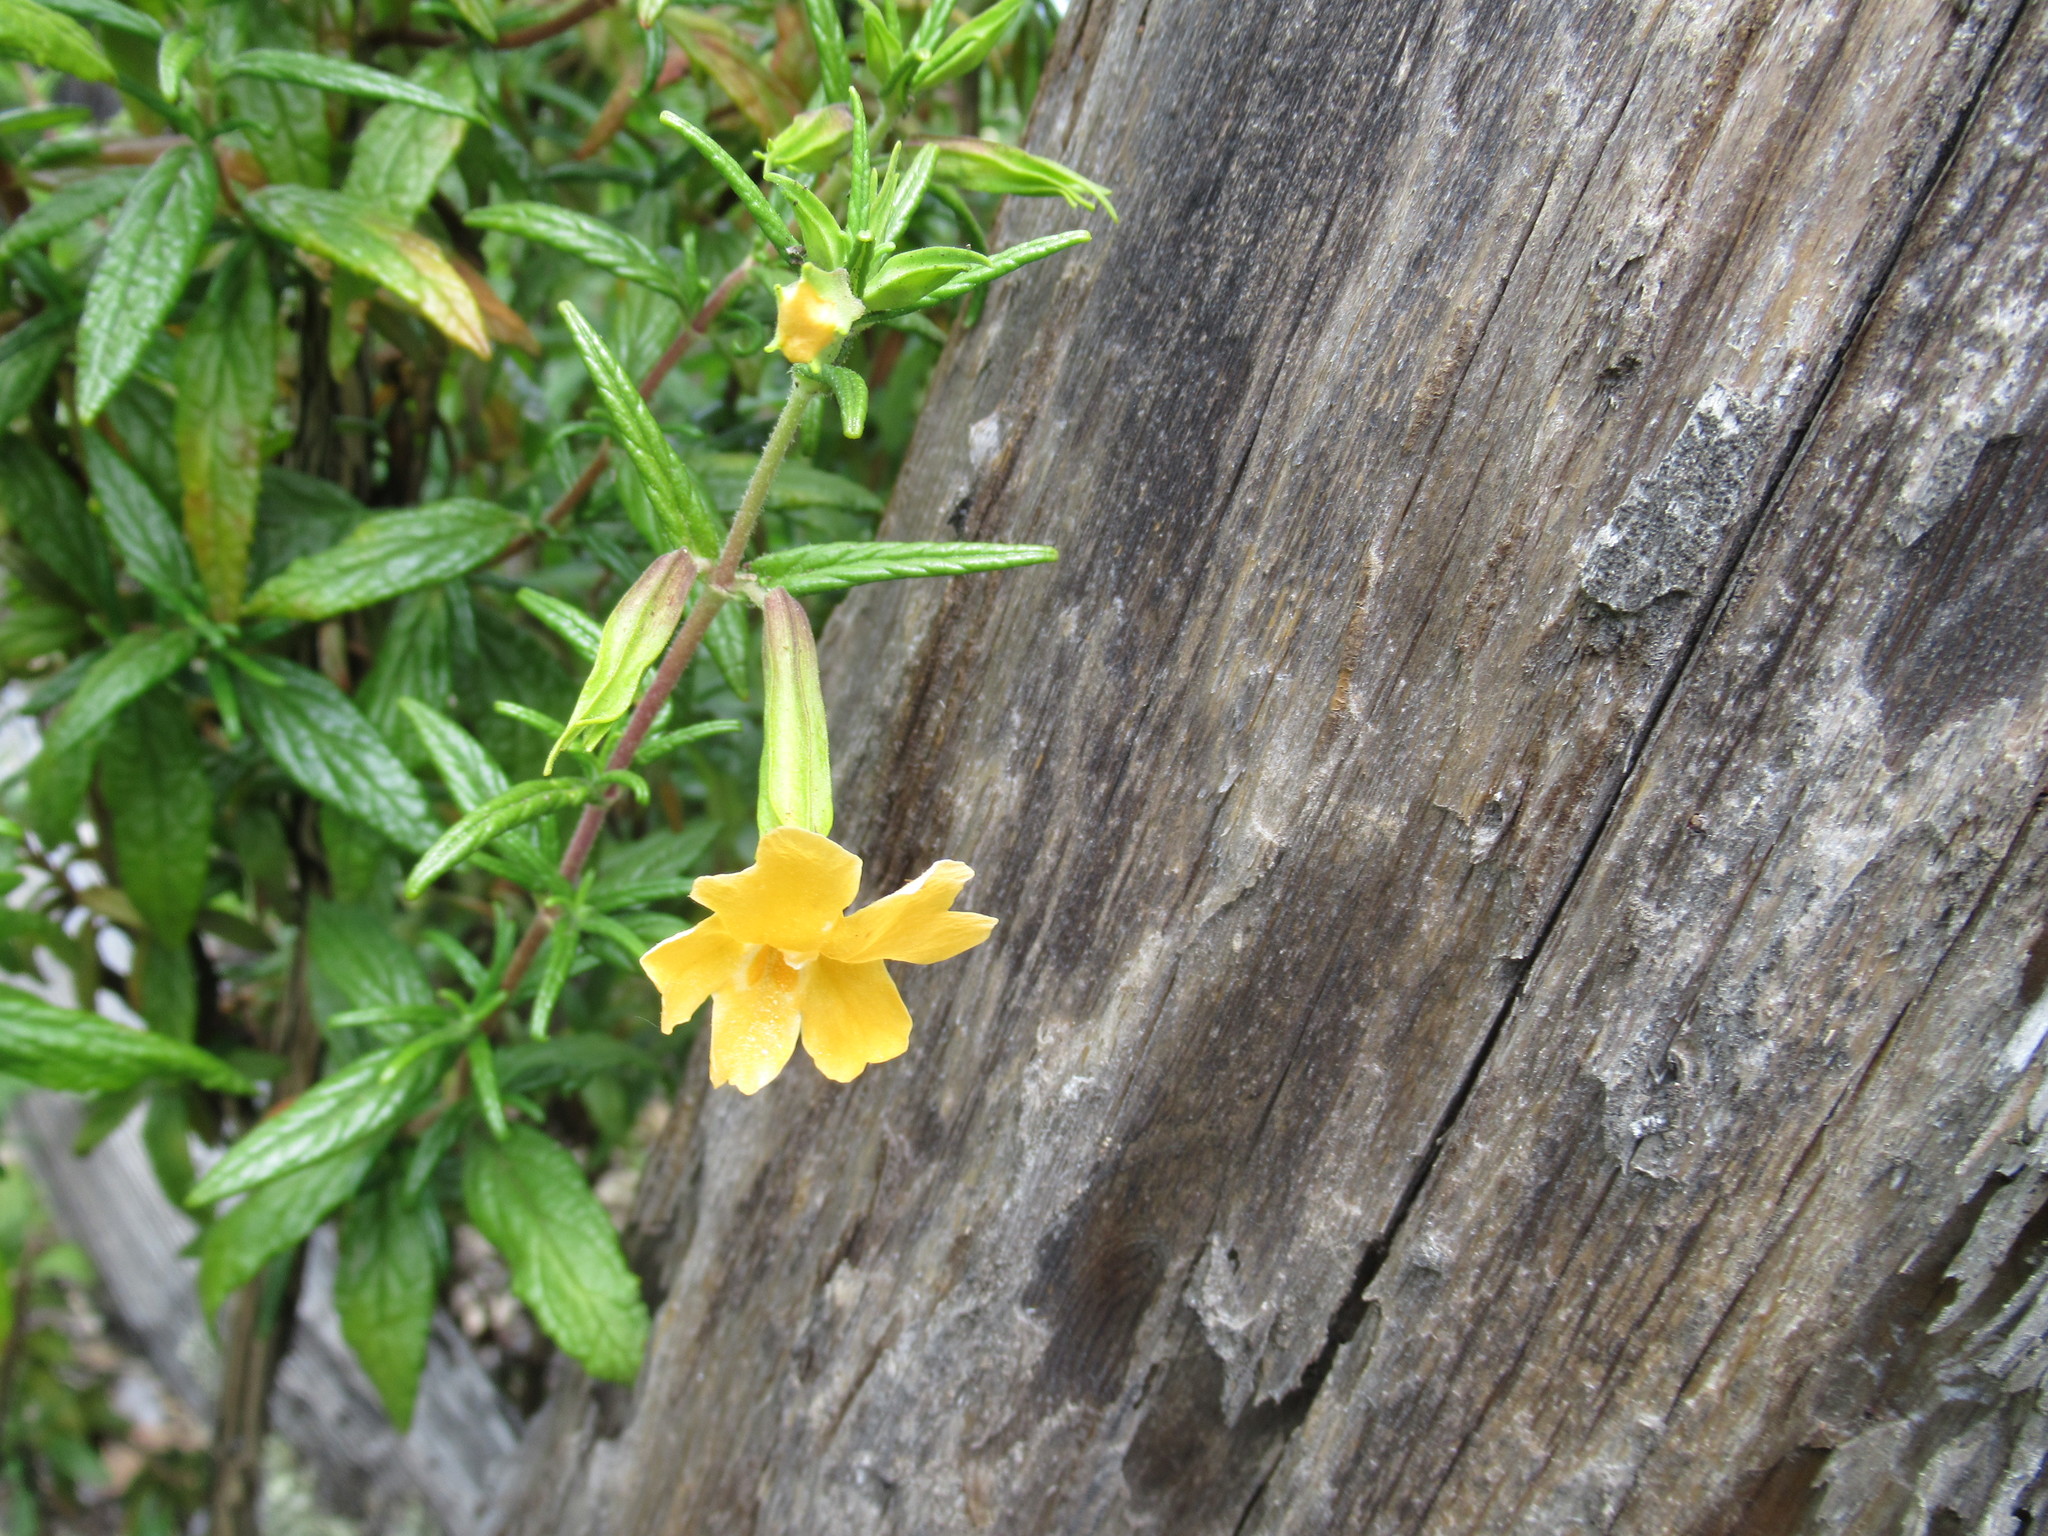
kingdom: Plantae
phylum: Tracheophyta
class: Magnoliopsida
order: Lamiales
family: Phrymaceae
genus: Diplacus
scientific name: Diplacus aurantiacus
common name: Bush monkey-flower
